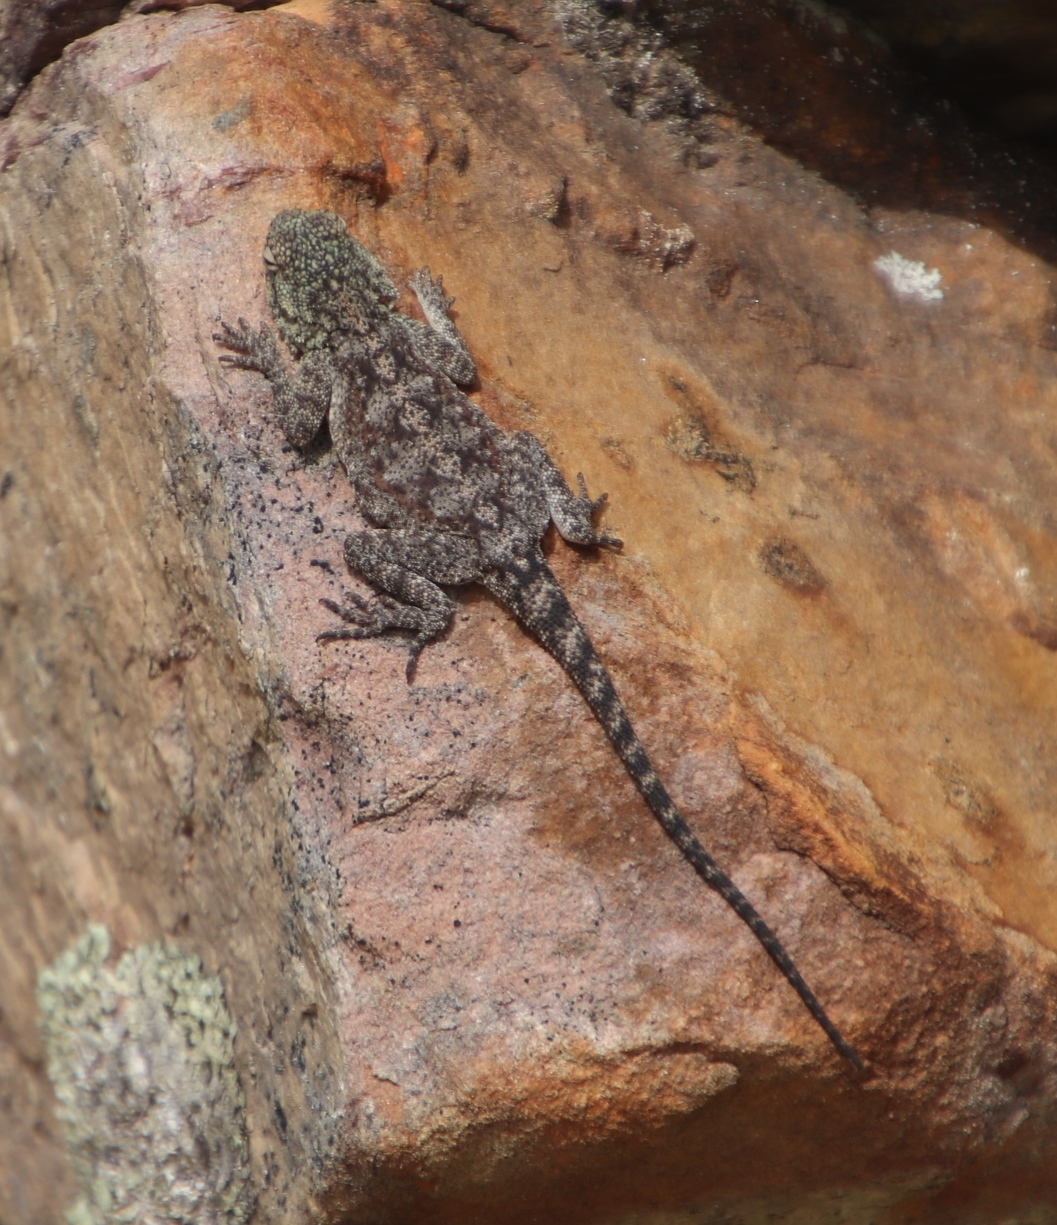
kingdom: Animalia
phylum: Chordata
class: Squamata
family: Agamidae
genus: Agama
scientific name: Agama atra
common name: Southern african rock agama
